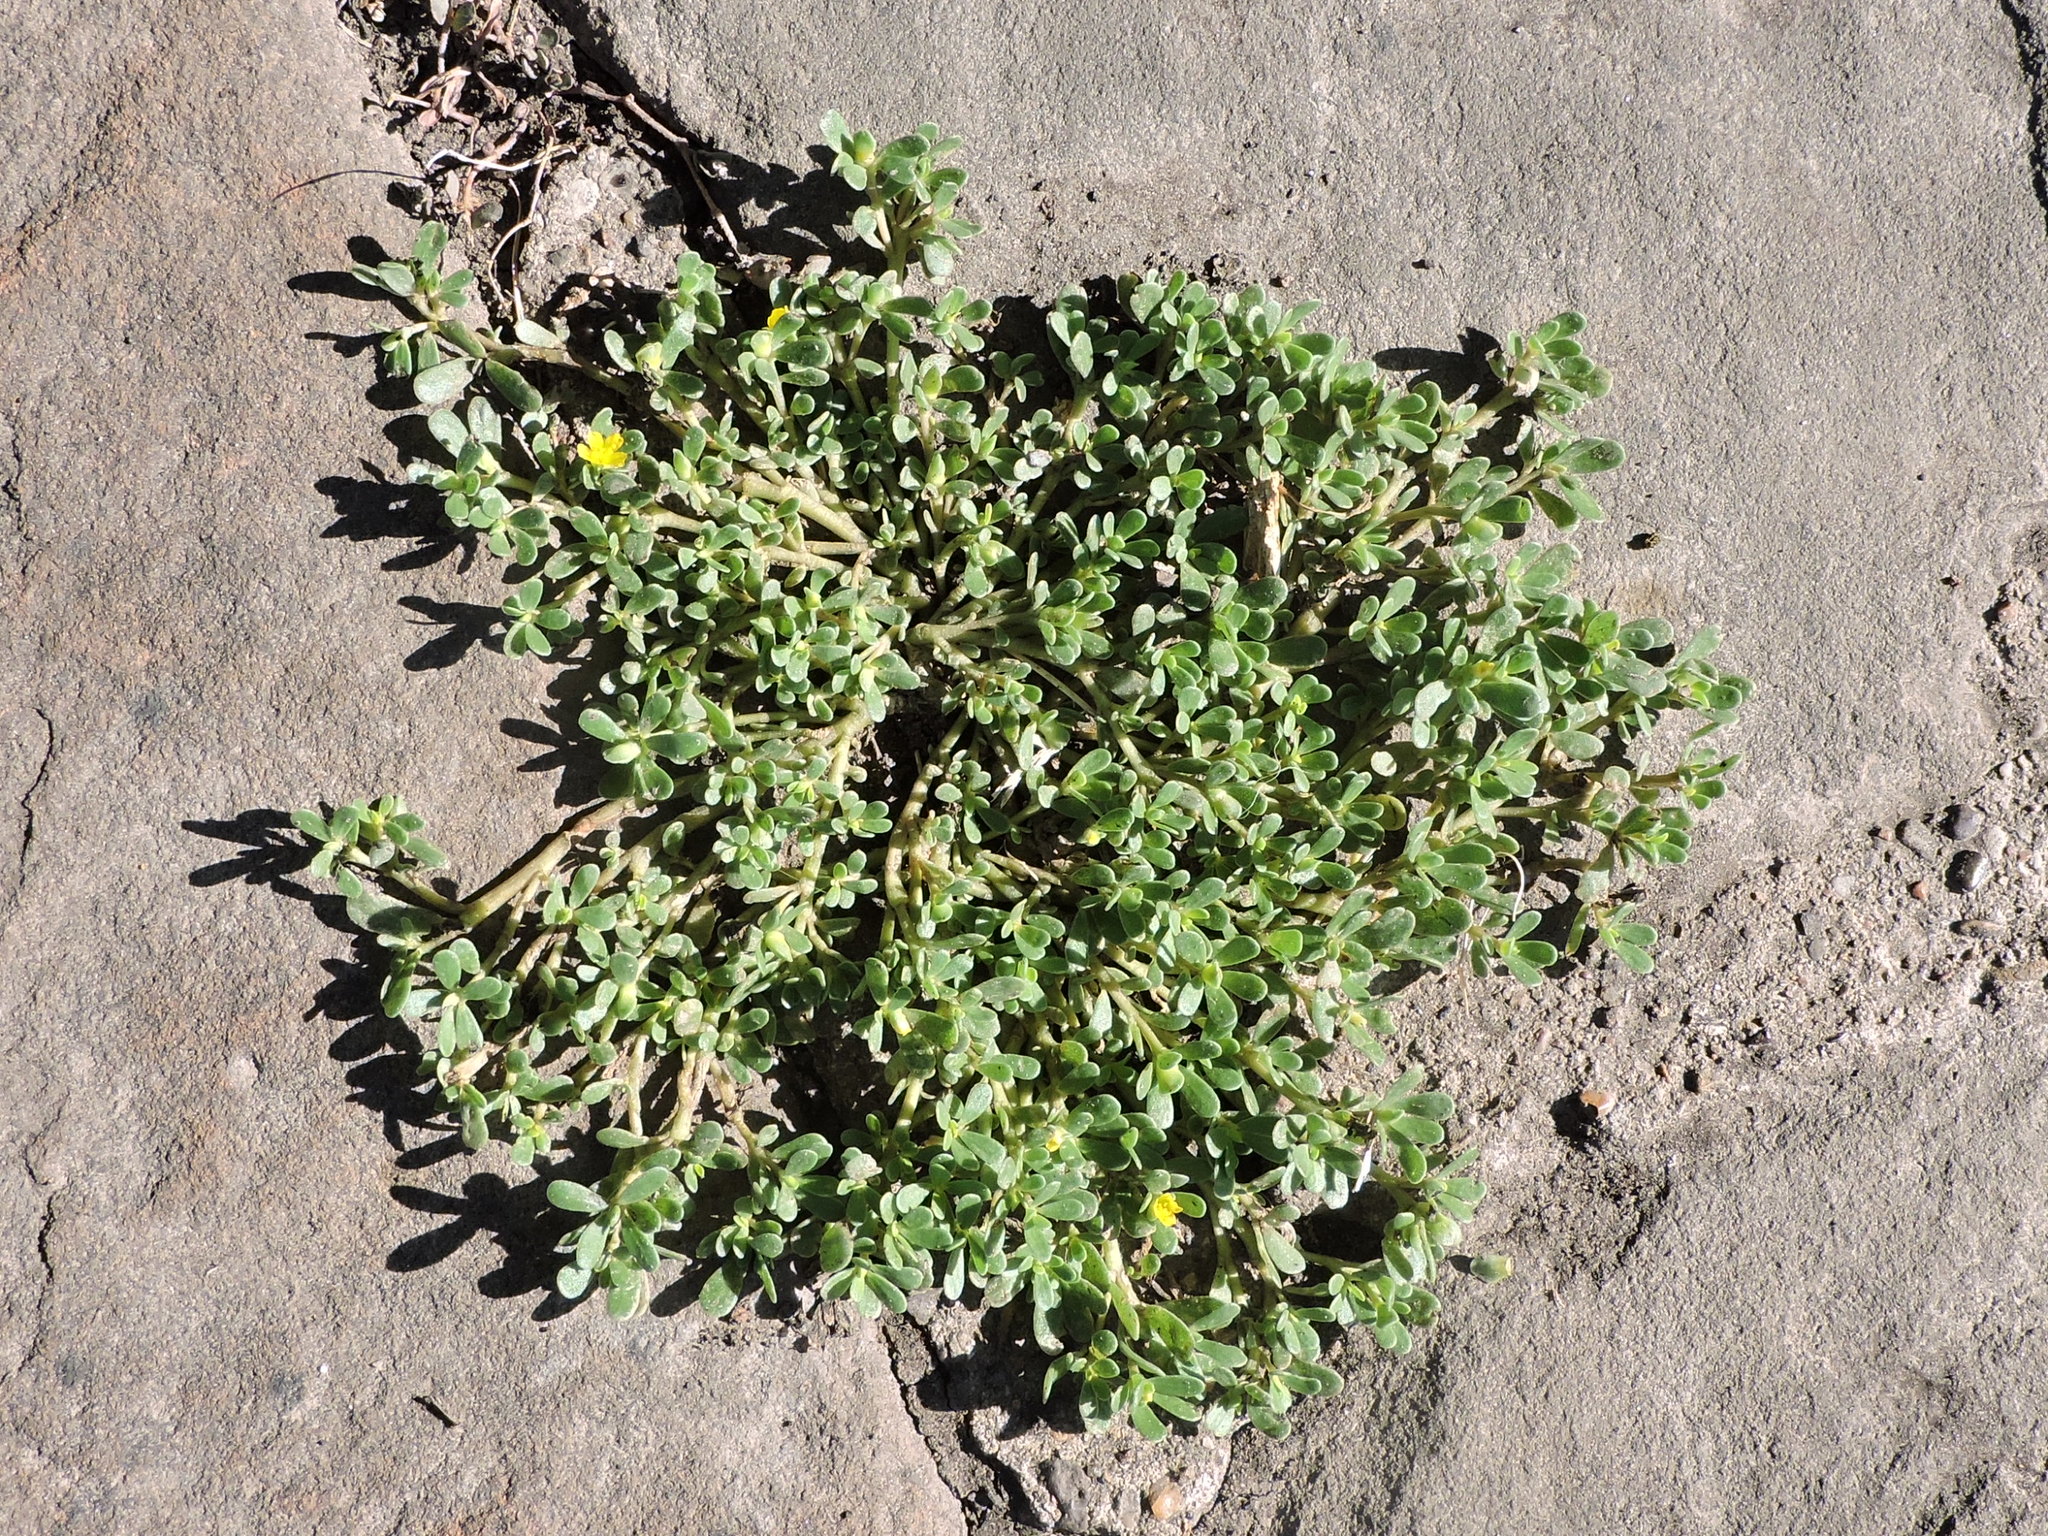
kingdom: Plantae
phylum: Tracheophyta
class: Magnoliopsida
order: Caryophyllales
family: Portulacaceae
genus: Portulaca
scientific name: Portulaca oleracea
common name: Common purslane
